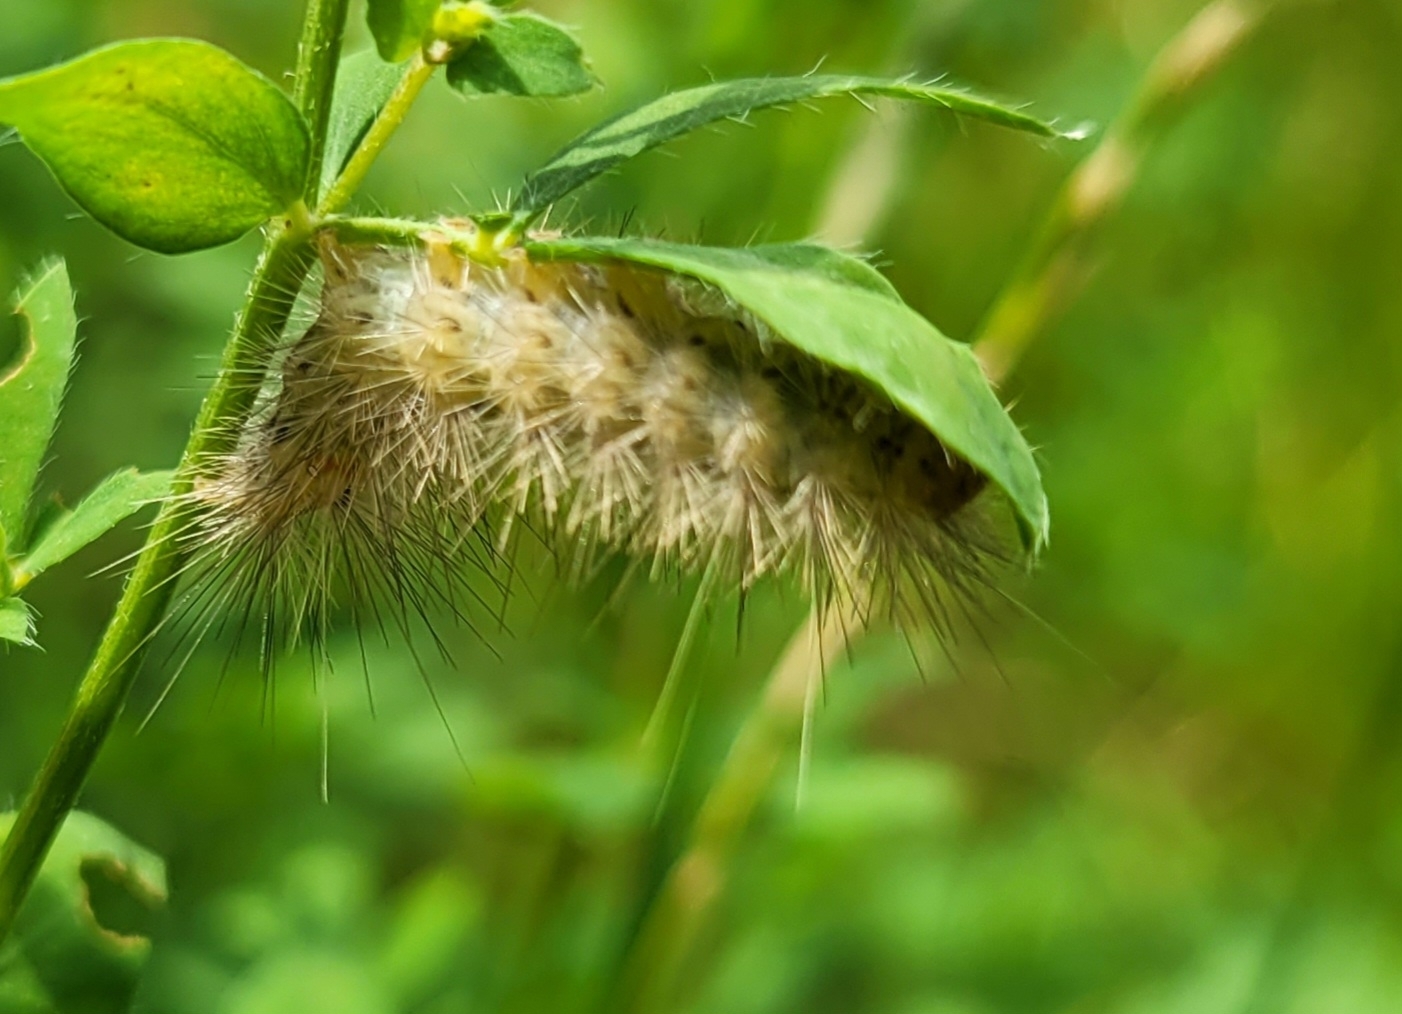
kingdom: Animalia
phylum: Arthropoda
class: Insecta
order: Lepidoptera
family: Erebidae
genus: Spilarctia
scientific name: Spilarctia lutea
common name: Buff ermine
